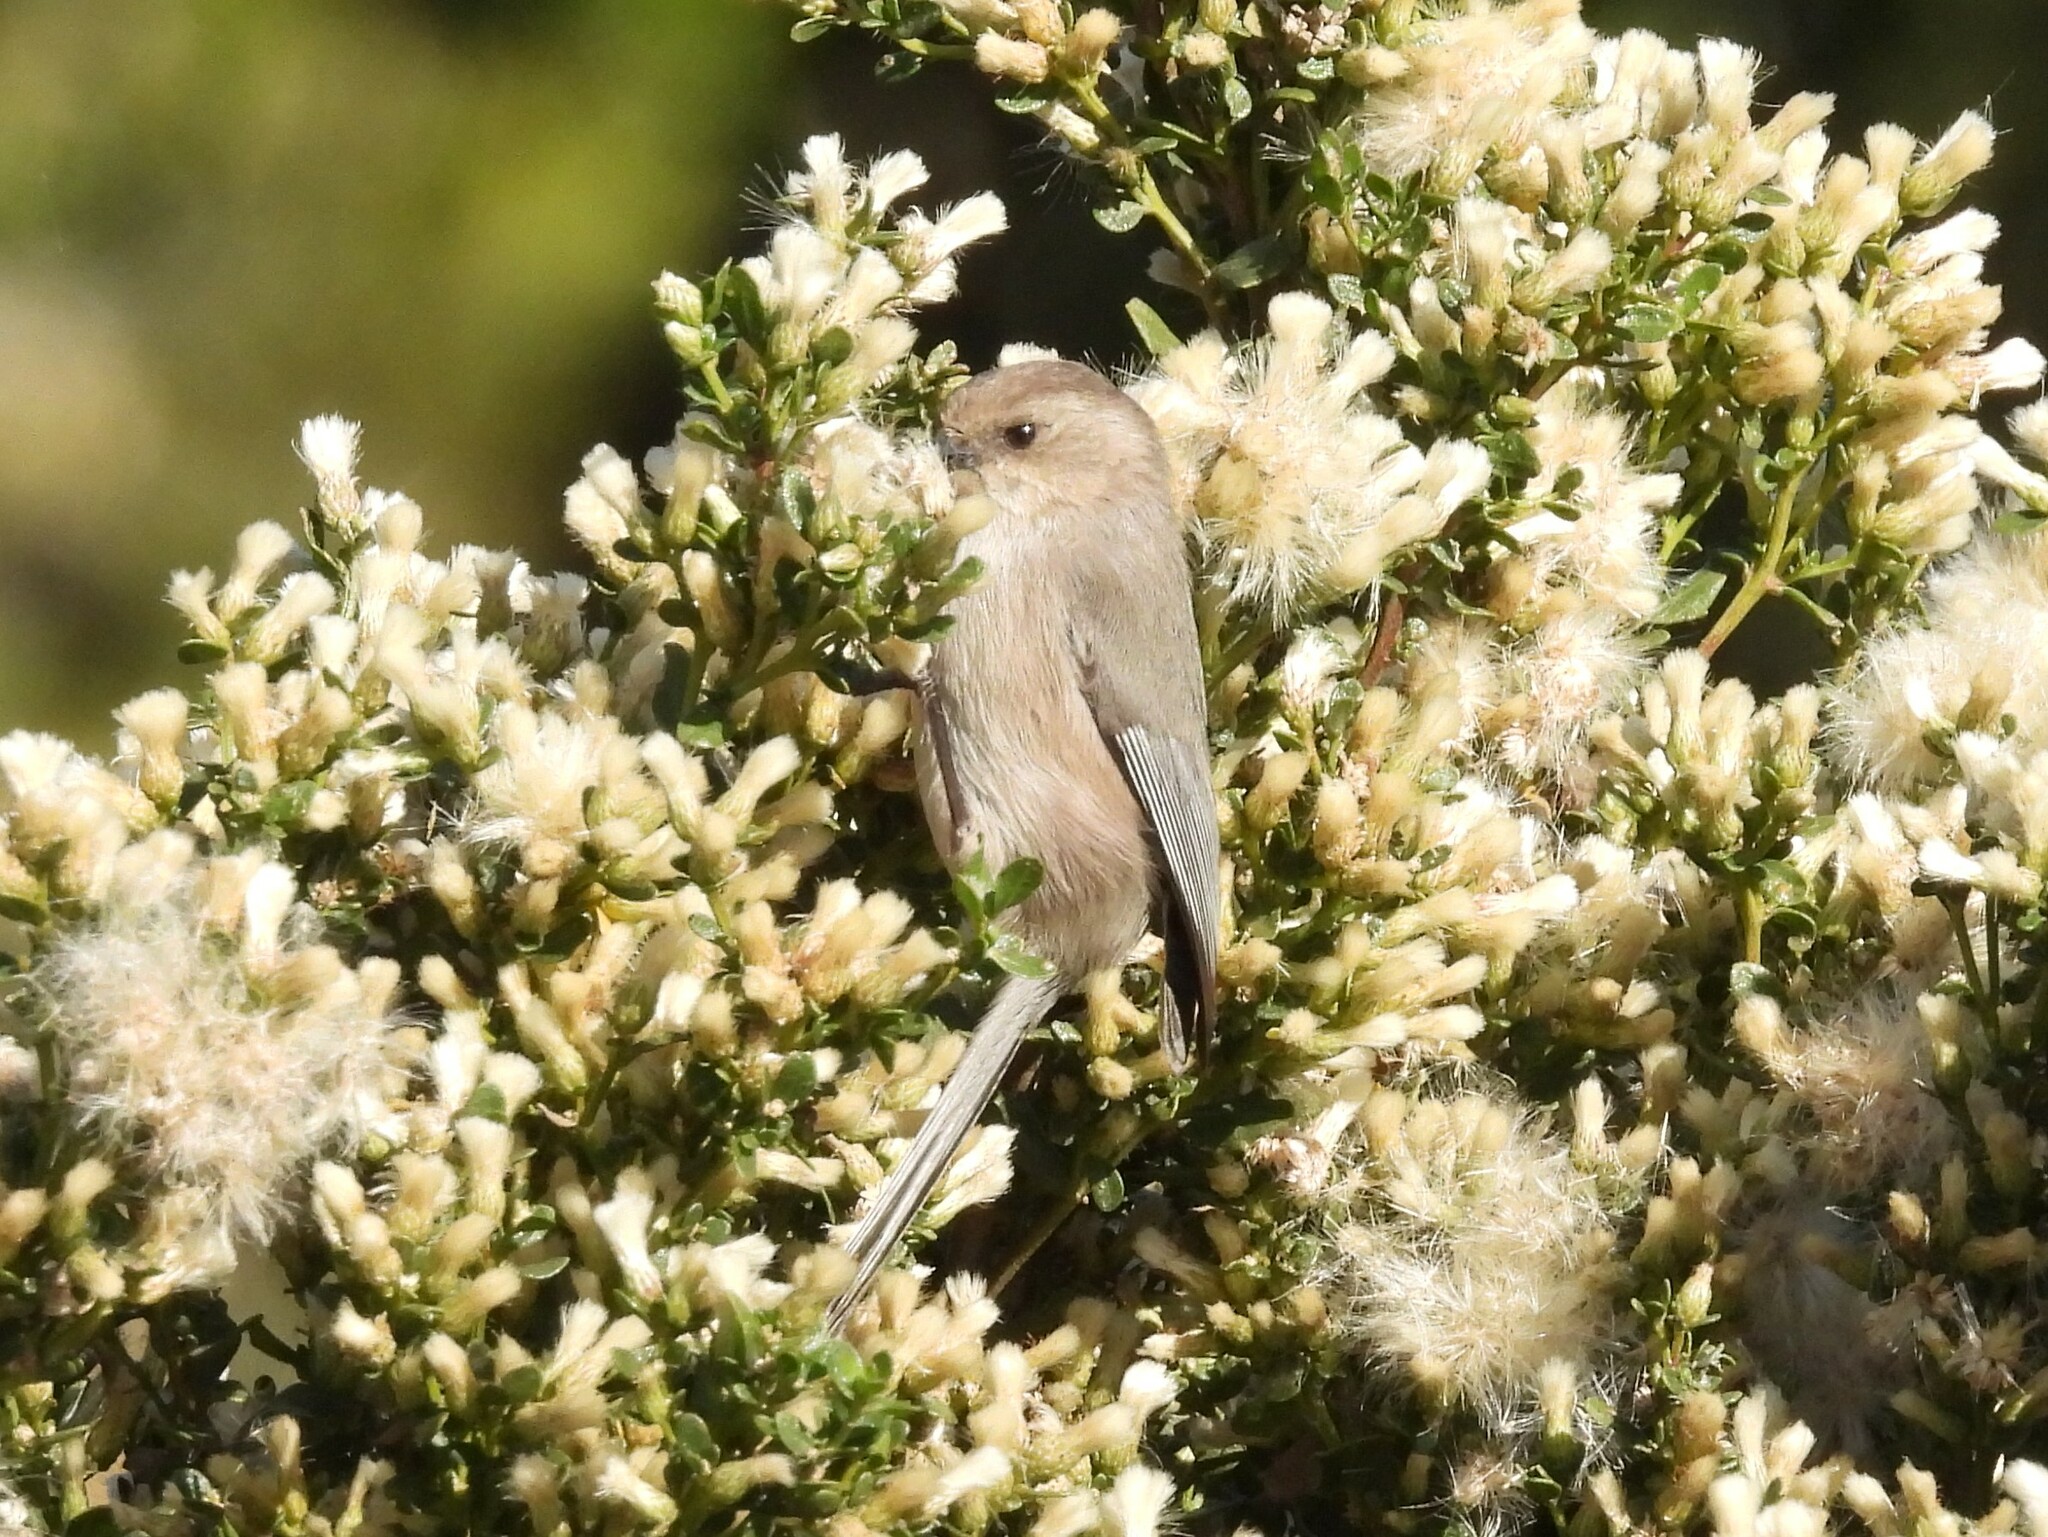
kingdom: Animalia
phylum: Chordata
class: Aves
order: Passeriformes
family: Aegithalidae
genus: Psaltriparus
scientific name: Psaltriparus minimus
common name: American bushtit
